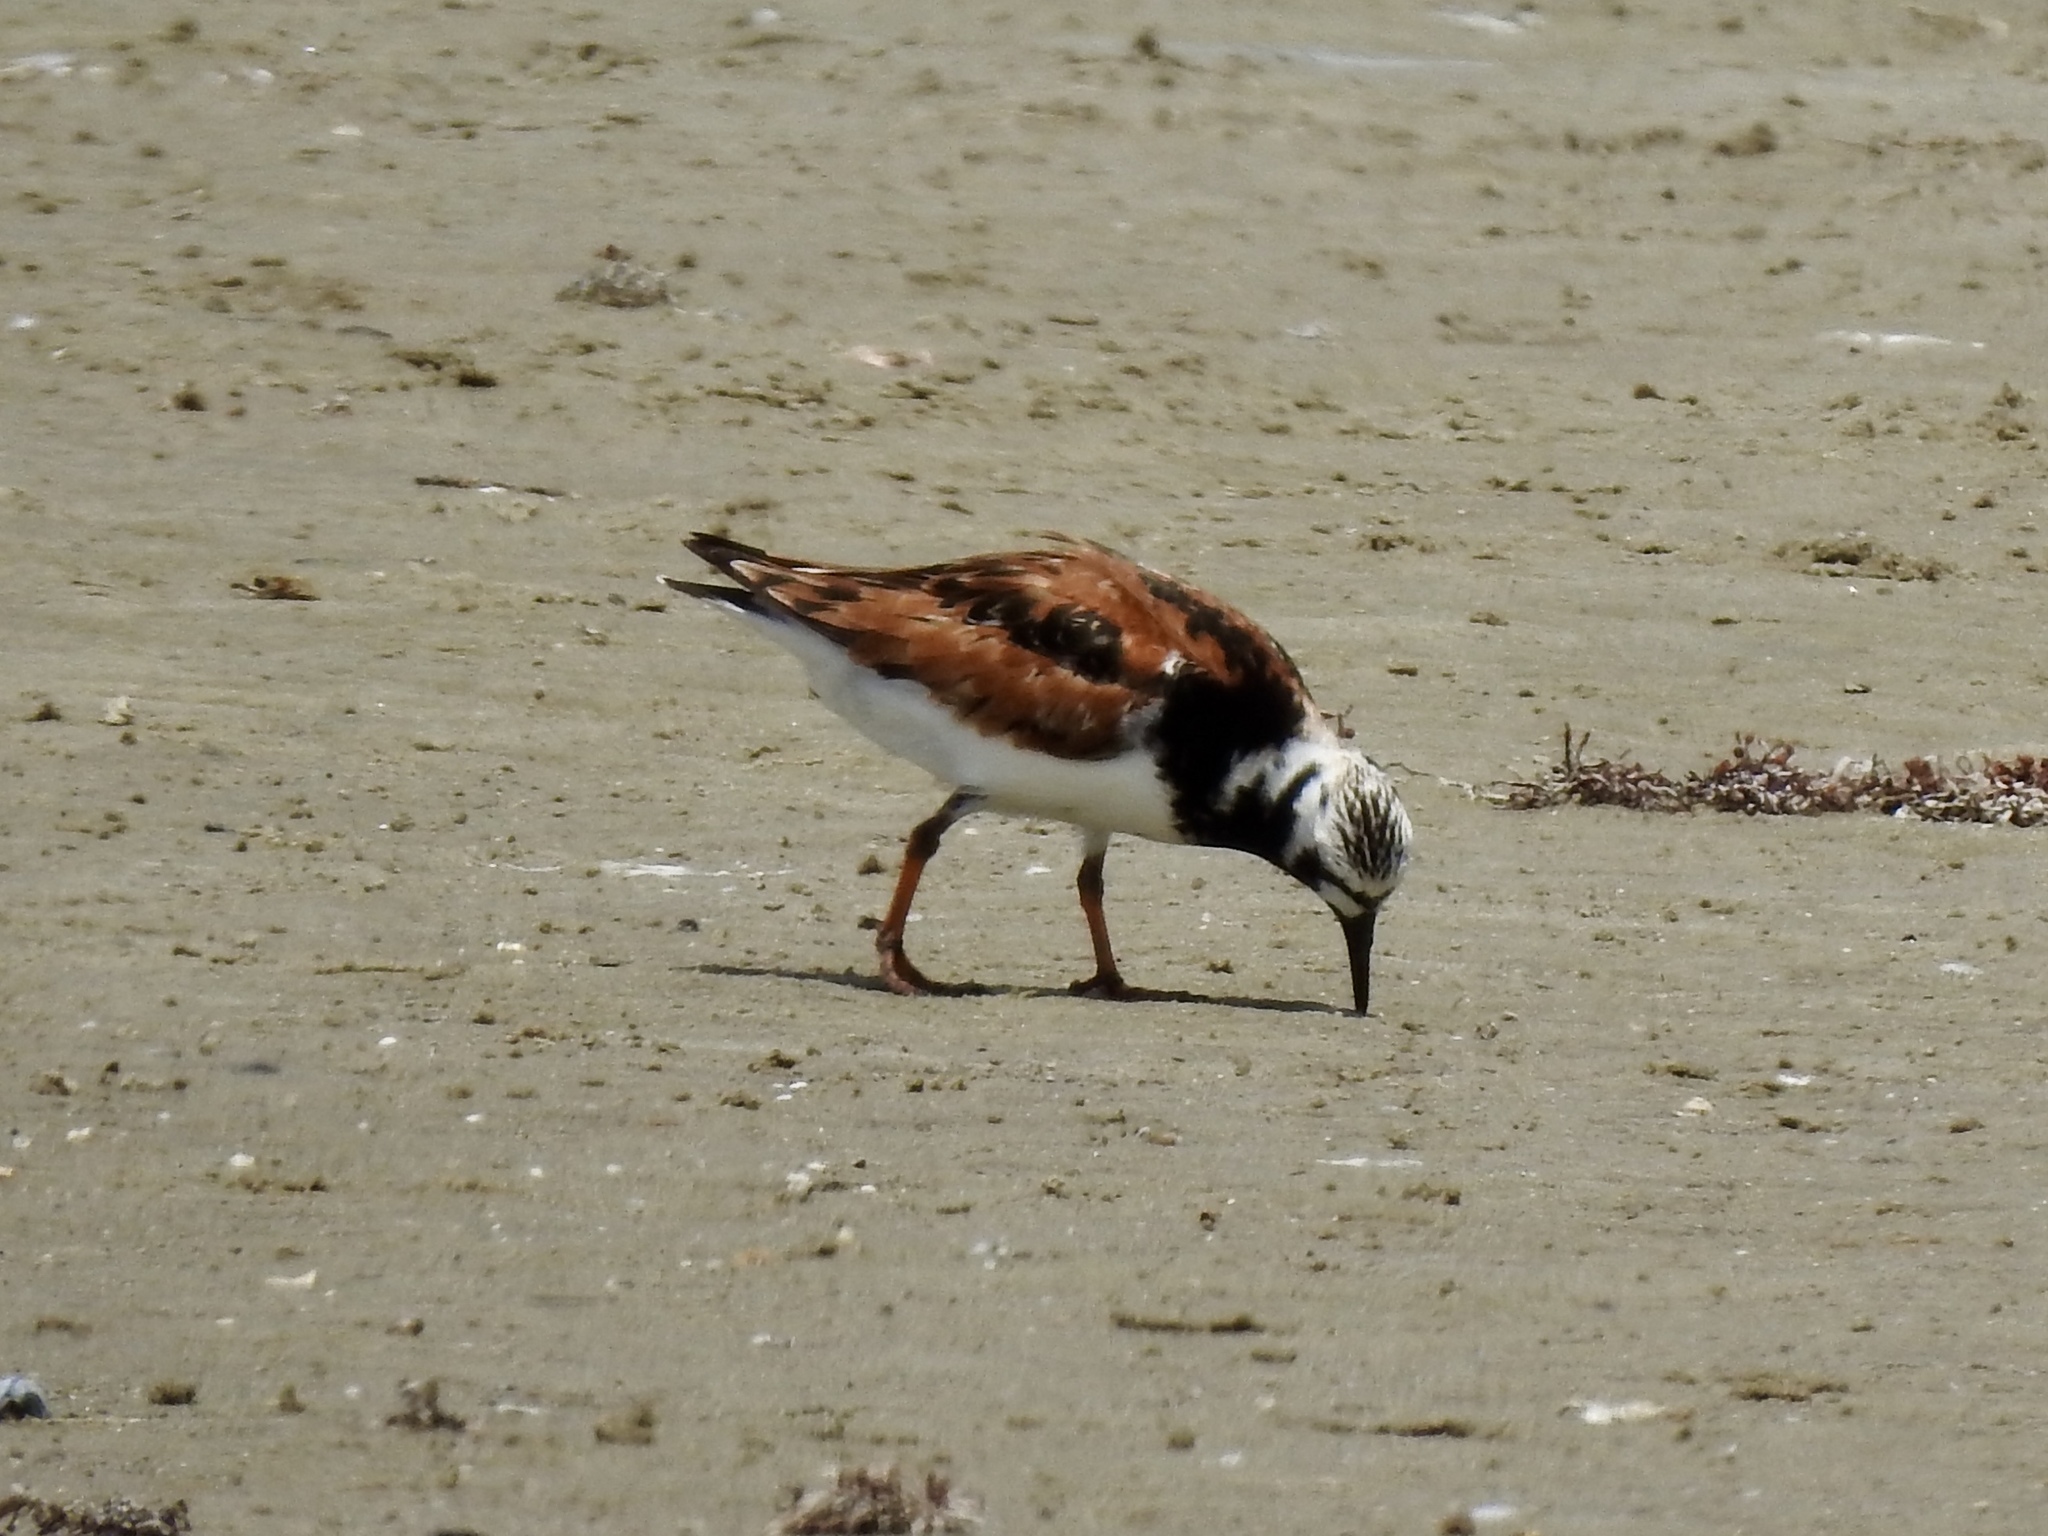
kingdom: Animalia
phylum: Chordata
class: Aves
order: Charadriiformes
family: Scolopacidae
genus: Arenaria
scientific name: Arenaria interpres
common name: Ruddy turnstone
